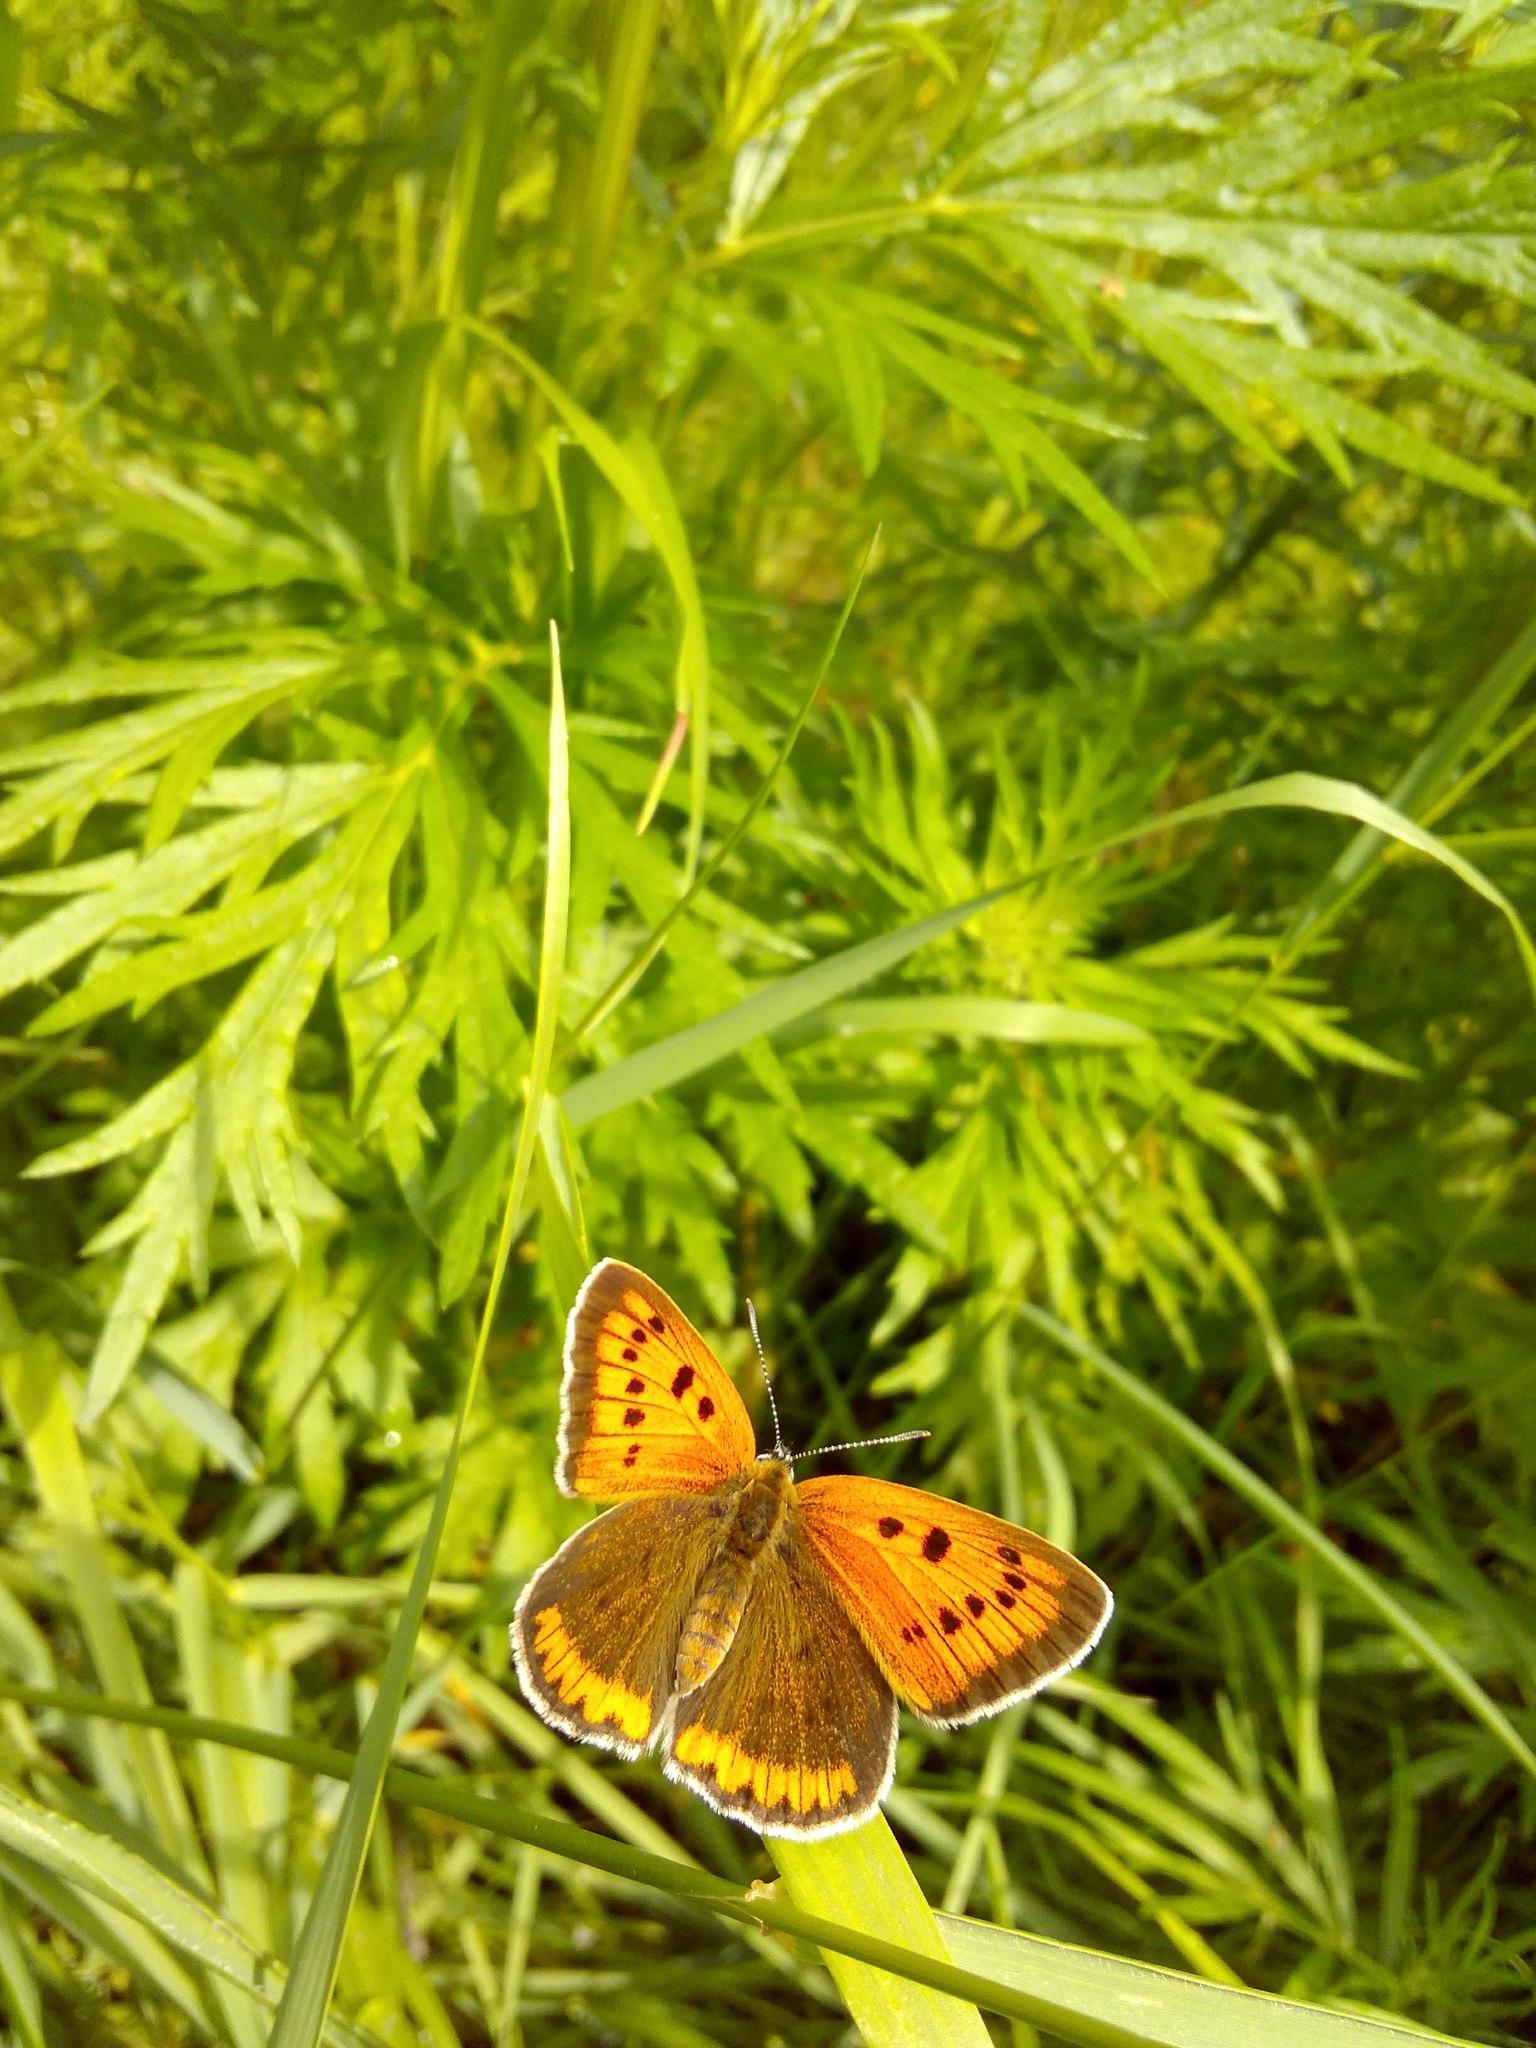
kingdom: Animalia
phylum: Arthropoda
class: Insecta
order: Lepidoptera
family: Lycaenidae
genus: Lycaena
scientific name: Lycaena dispar
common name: Large copper
